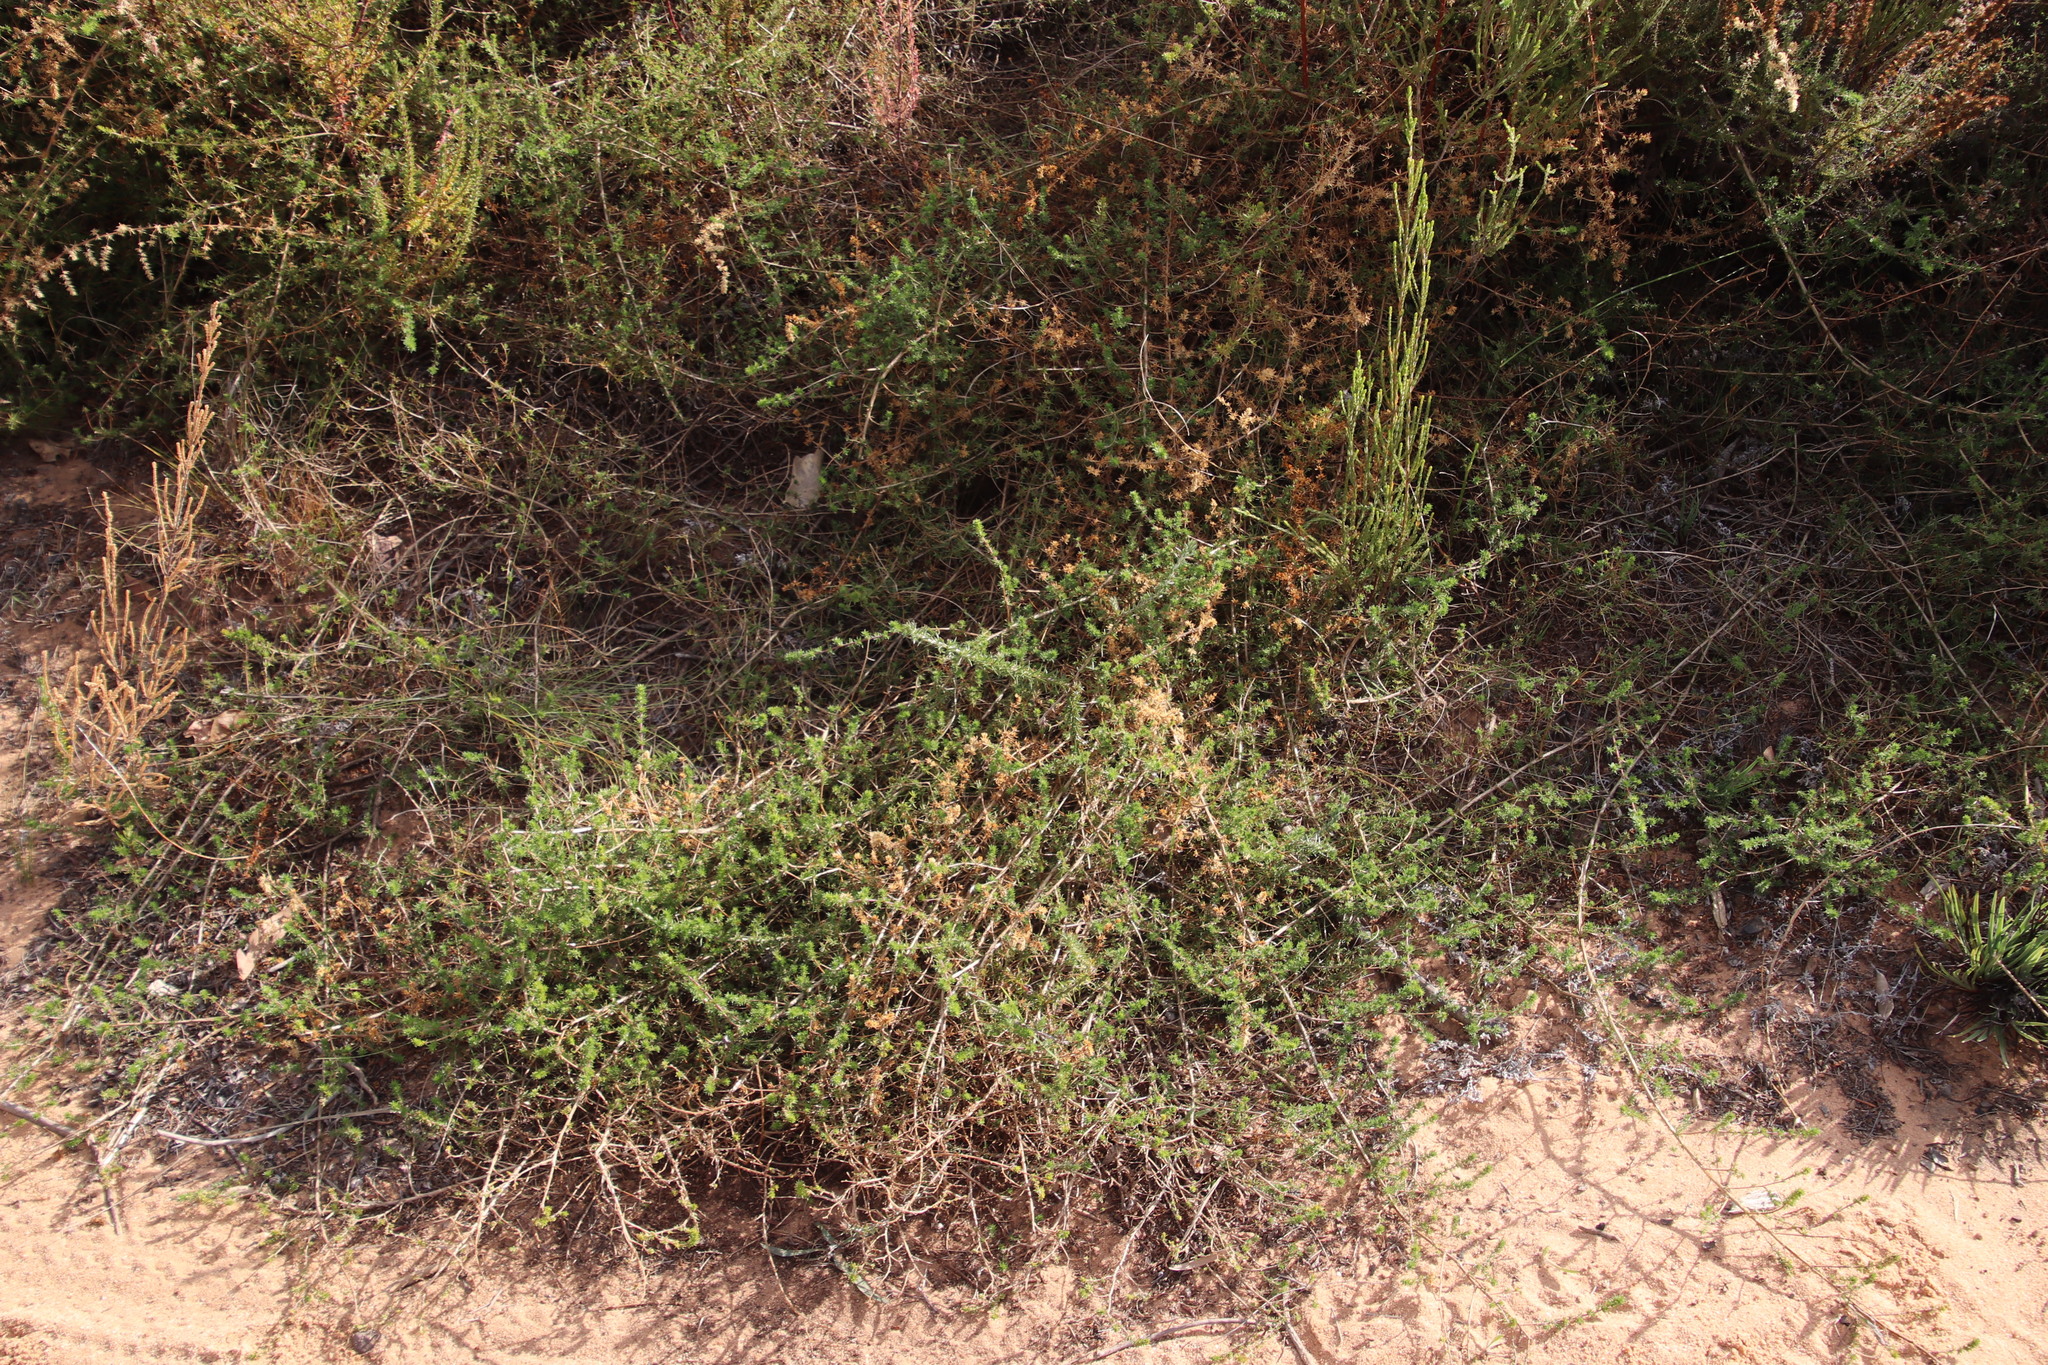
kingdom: Plantae
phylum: Tracheophyta
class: Magnoliopsida
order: Fabales
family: Fabaceae
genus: Aspalathus
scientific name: Aspalathus retroflexa
